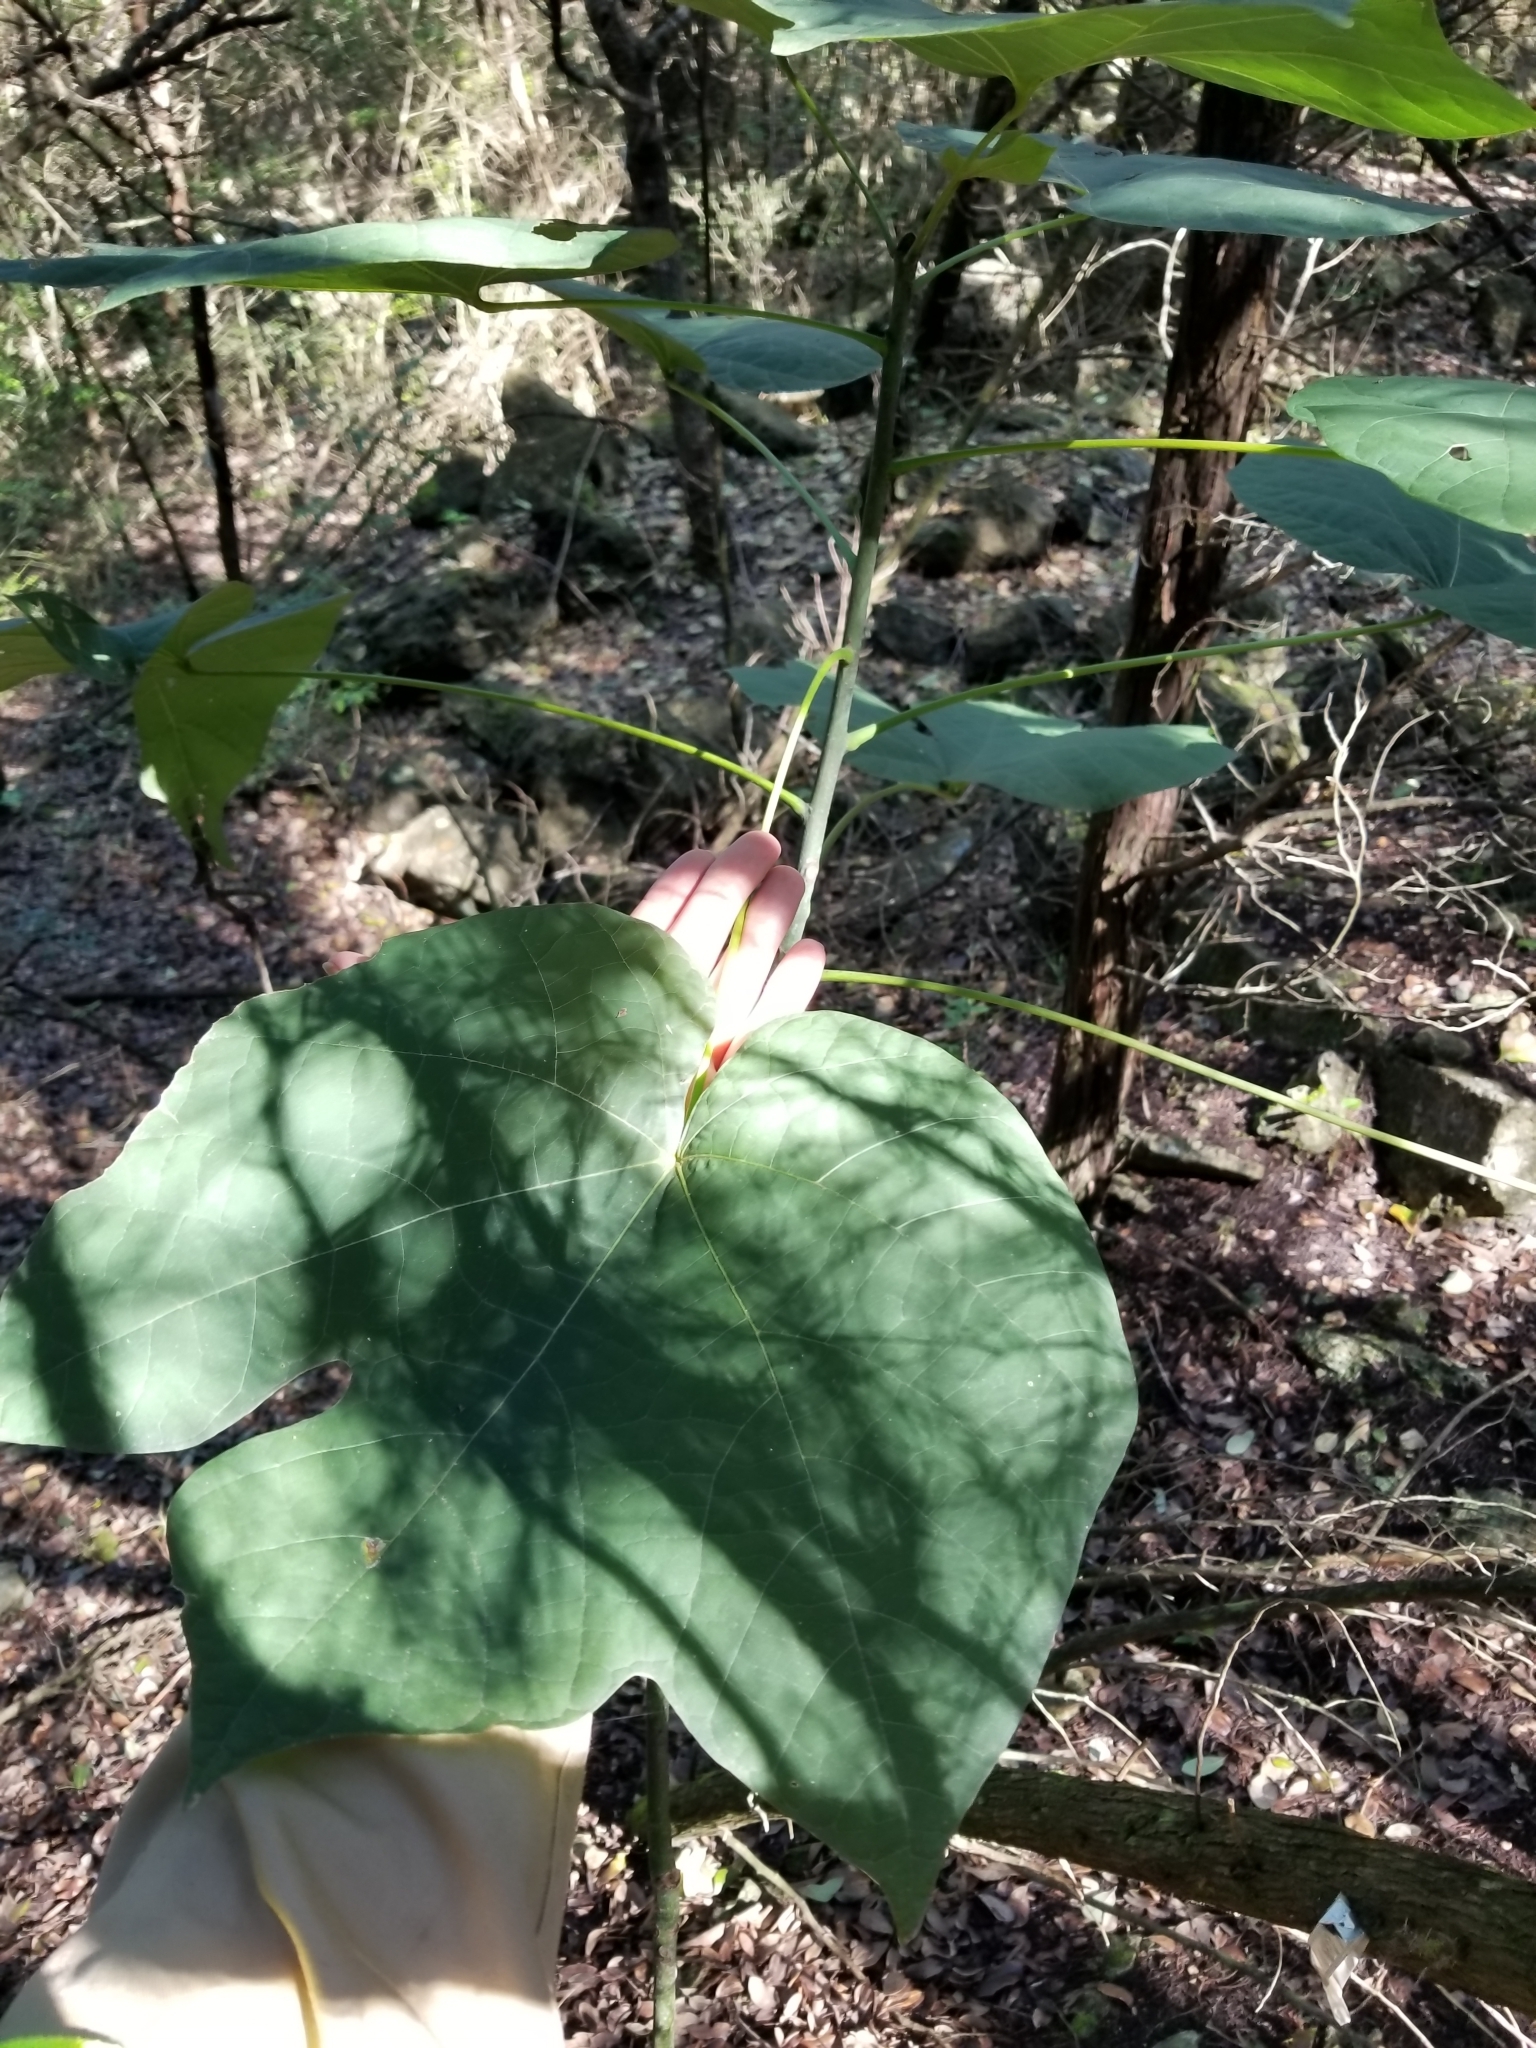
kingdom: Plantae
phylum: Tracheophyta
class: Magnoliopsida
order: Malvales
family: Malvaceae
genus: Firmiana
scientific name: Firmiana simplex
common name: Chinese parasoltree
